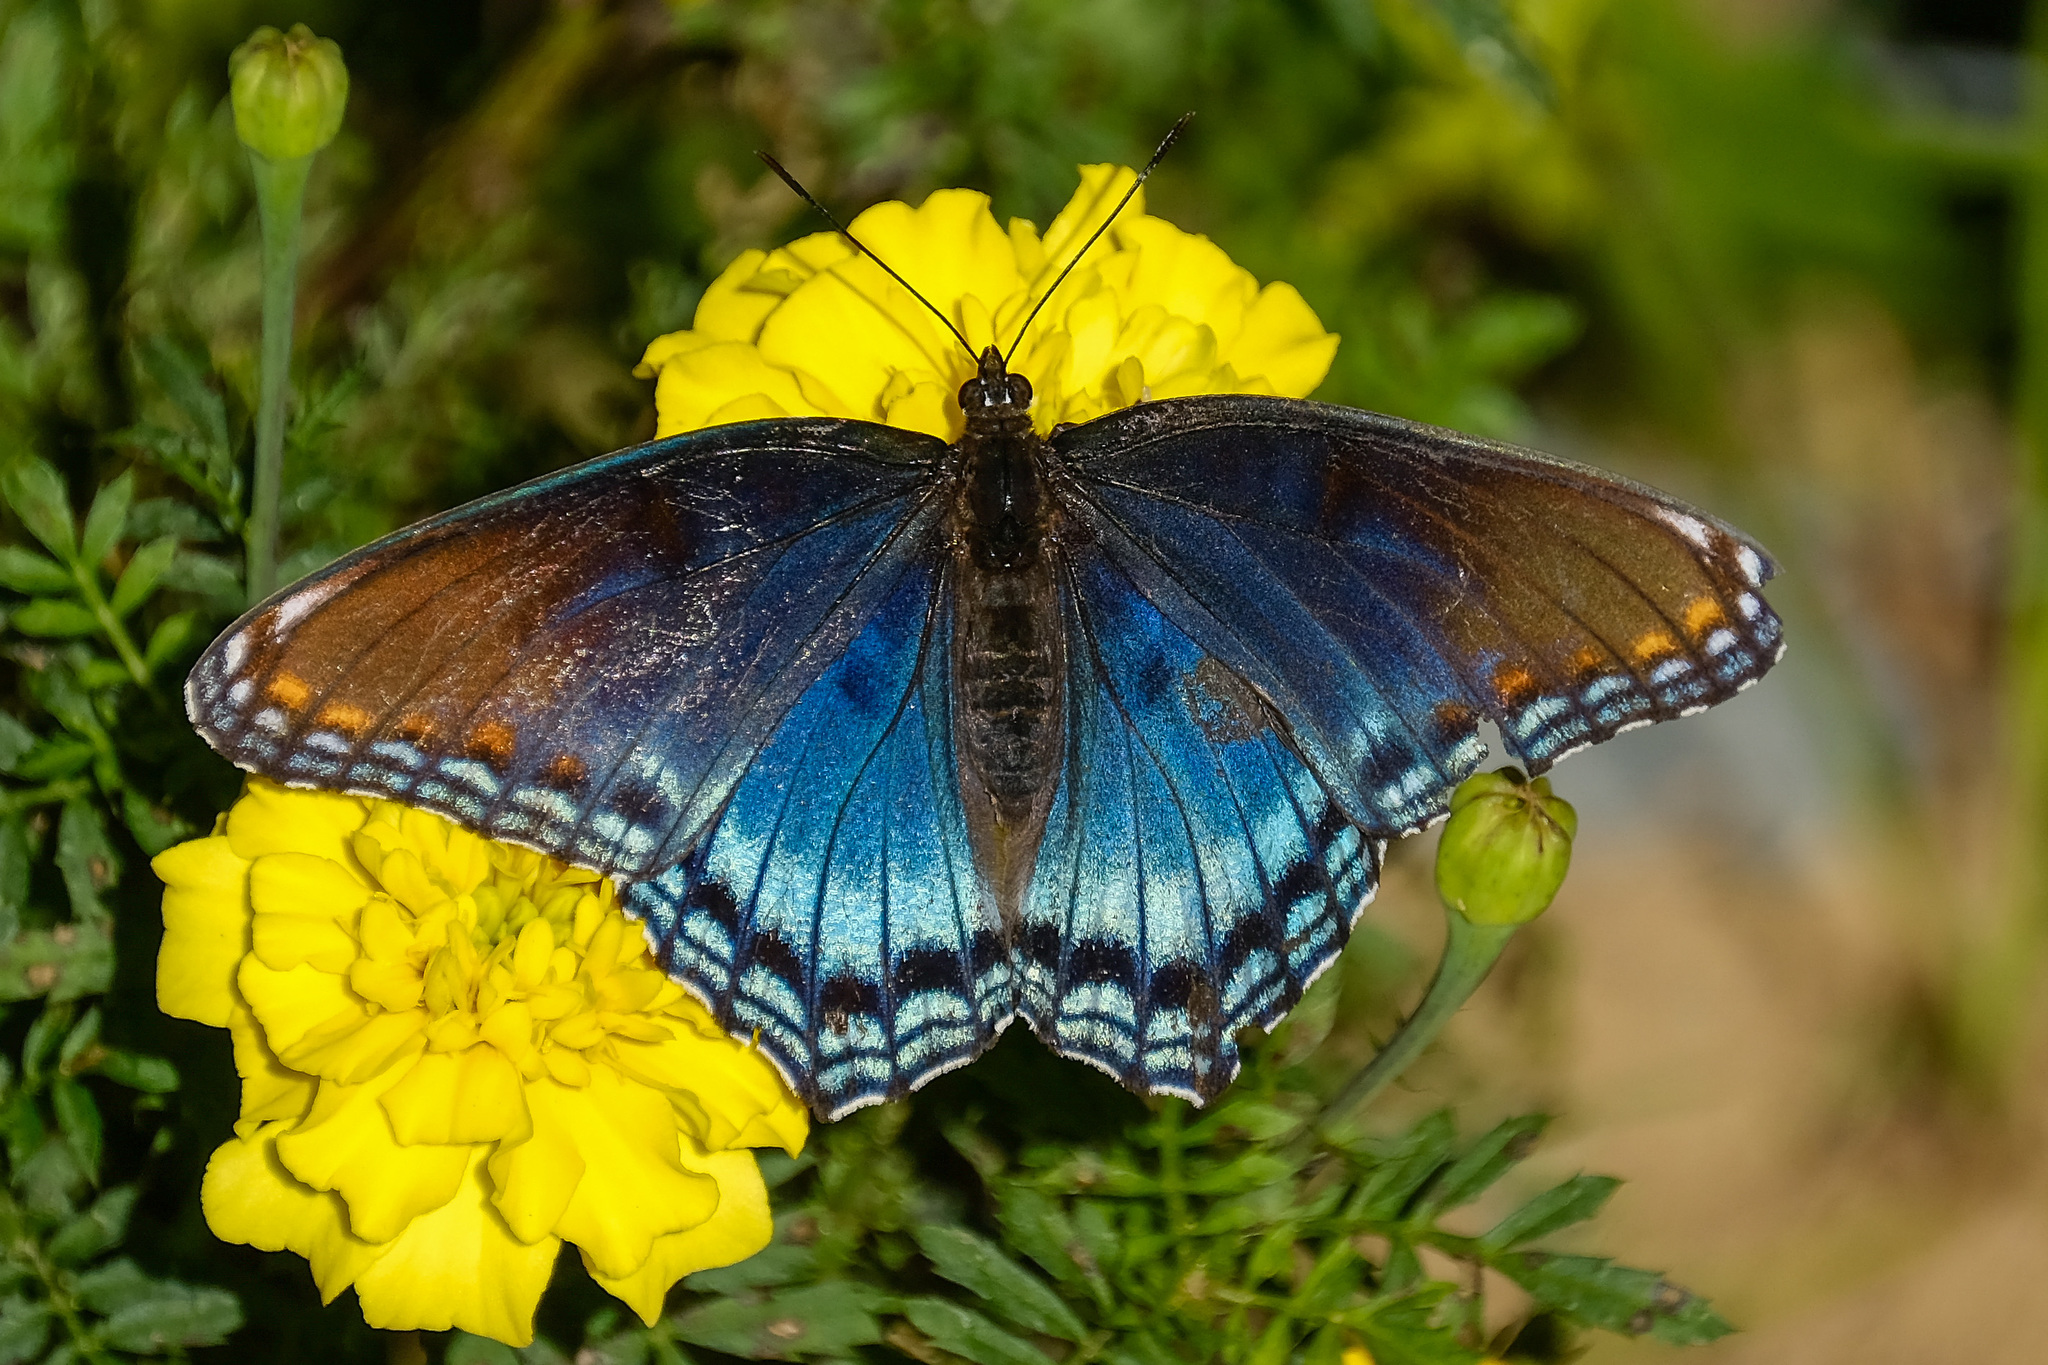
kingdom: Animalia
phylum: Arthropoda
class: Insecta
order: Lepidoptera
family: Nymphalidae
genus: Limenitis
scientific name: Limenitis astyanax
